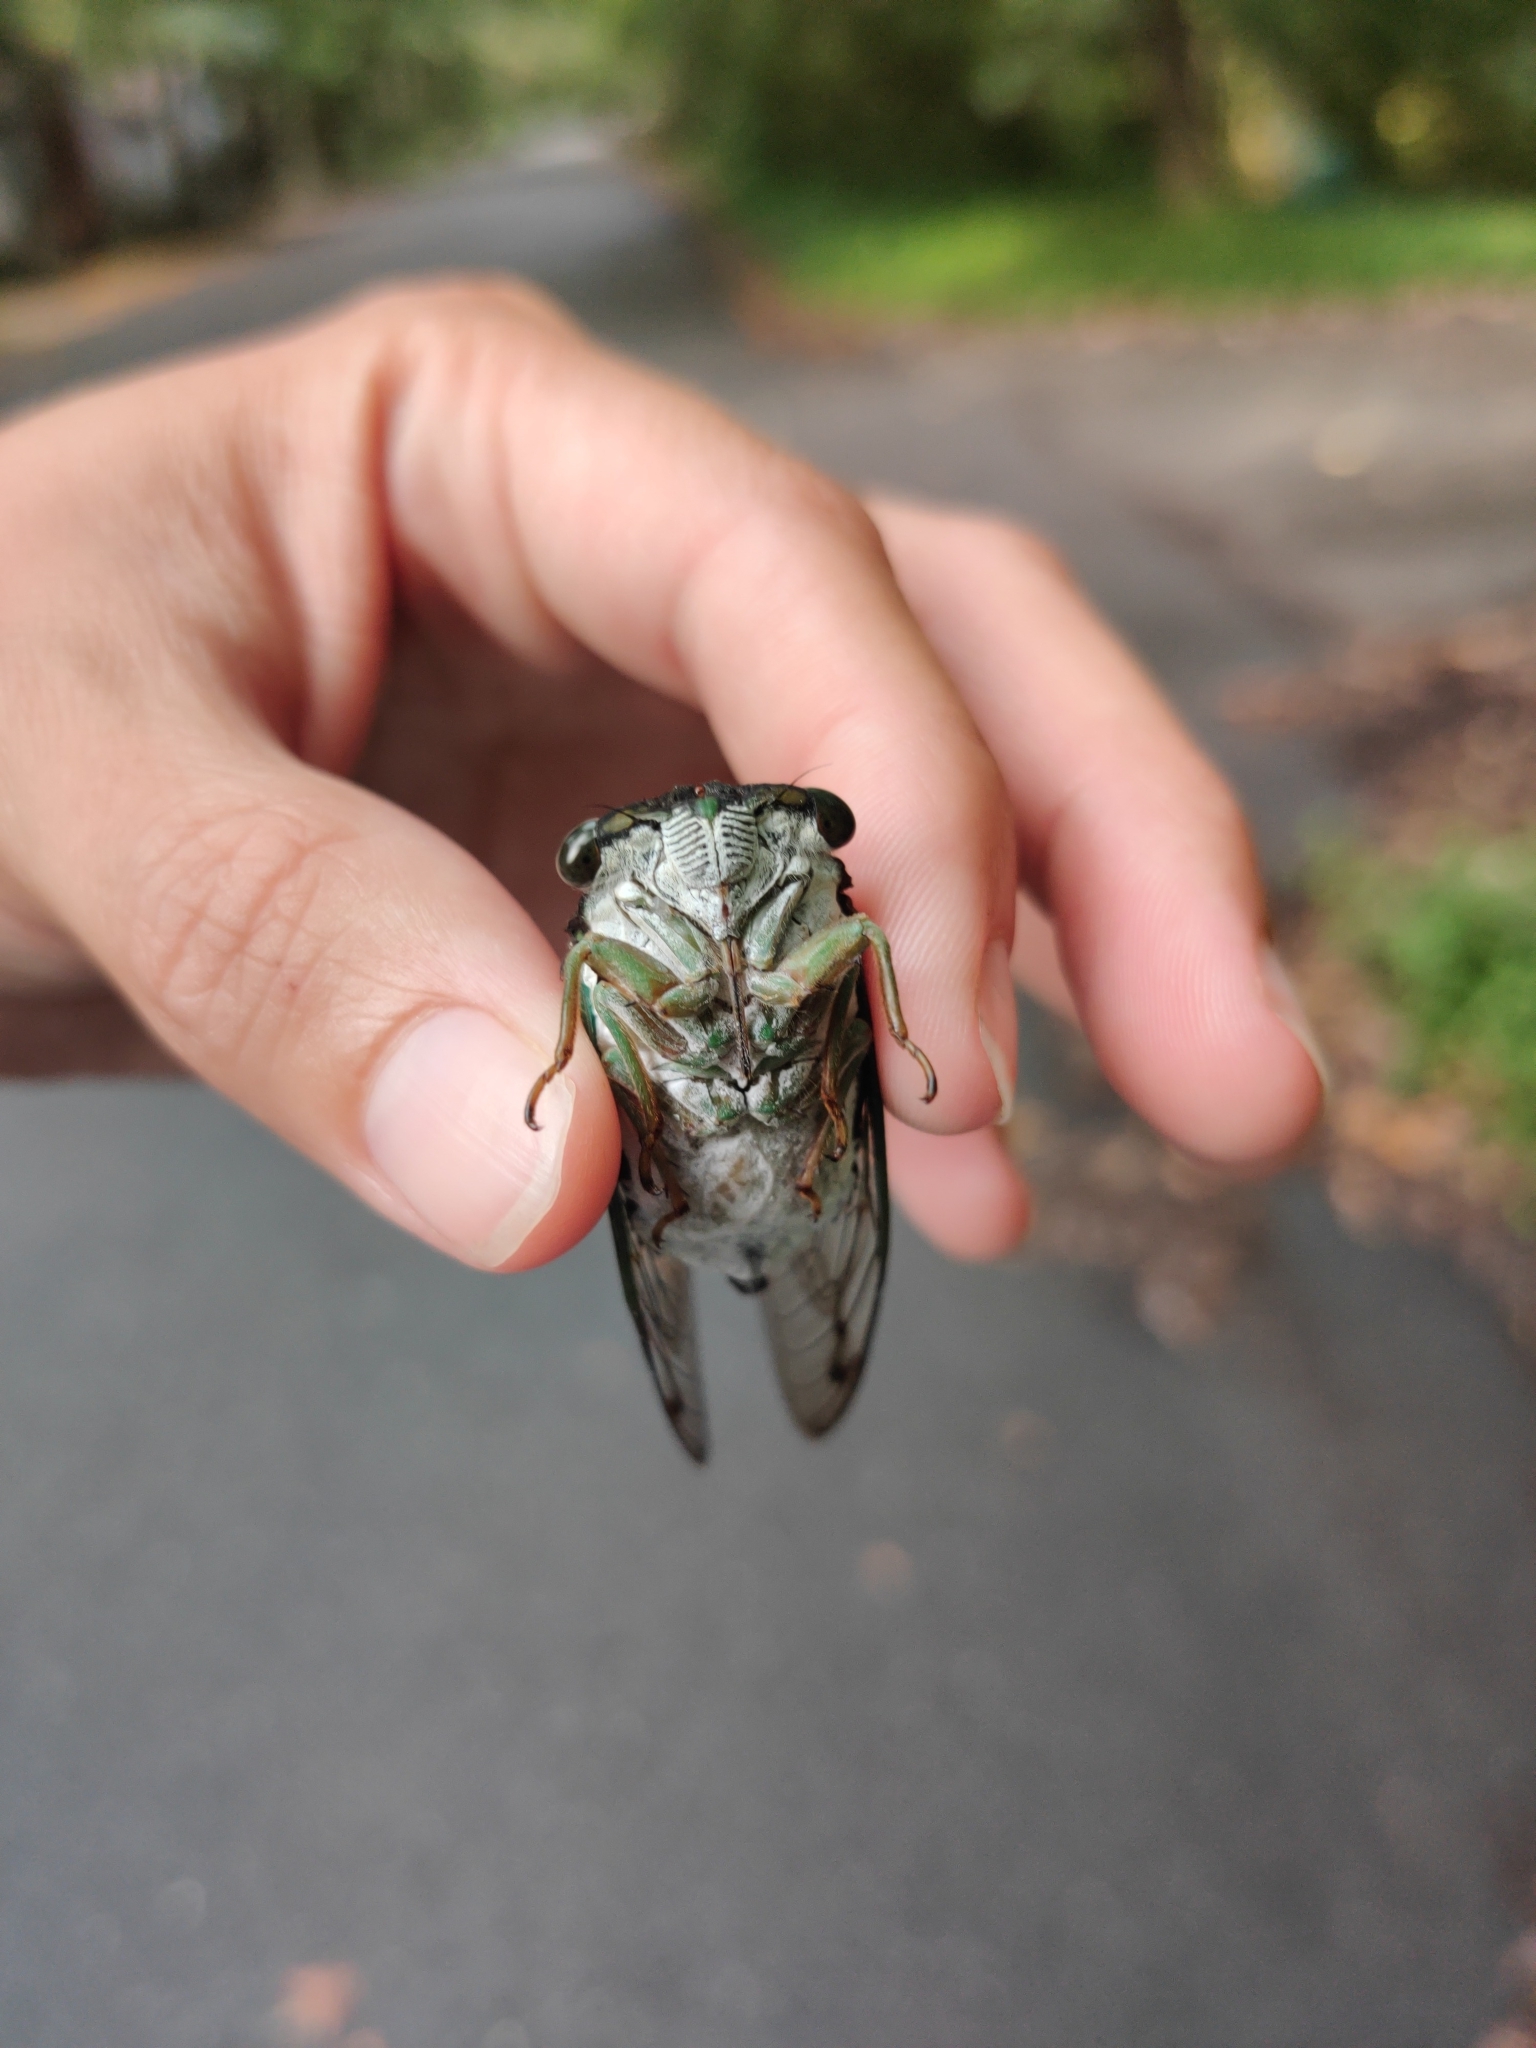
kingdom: Animalia
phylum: Arthropoda
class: Insecta
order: Hemiptera
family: Cicadidae
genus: Neotibicen
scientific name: Neotibicen tibicen
